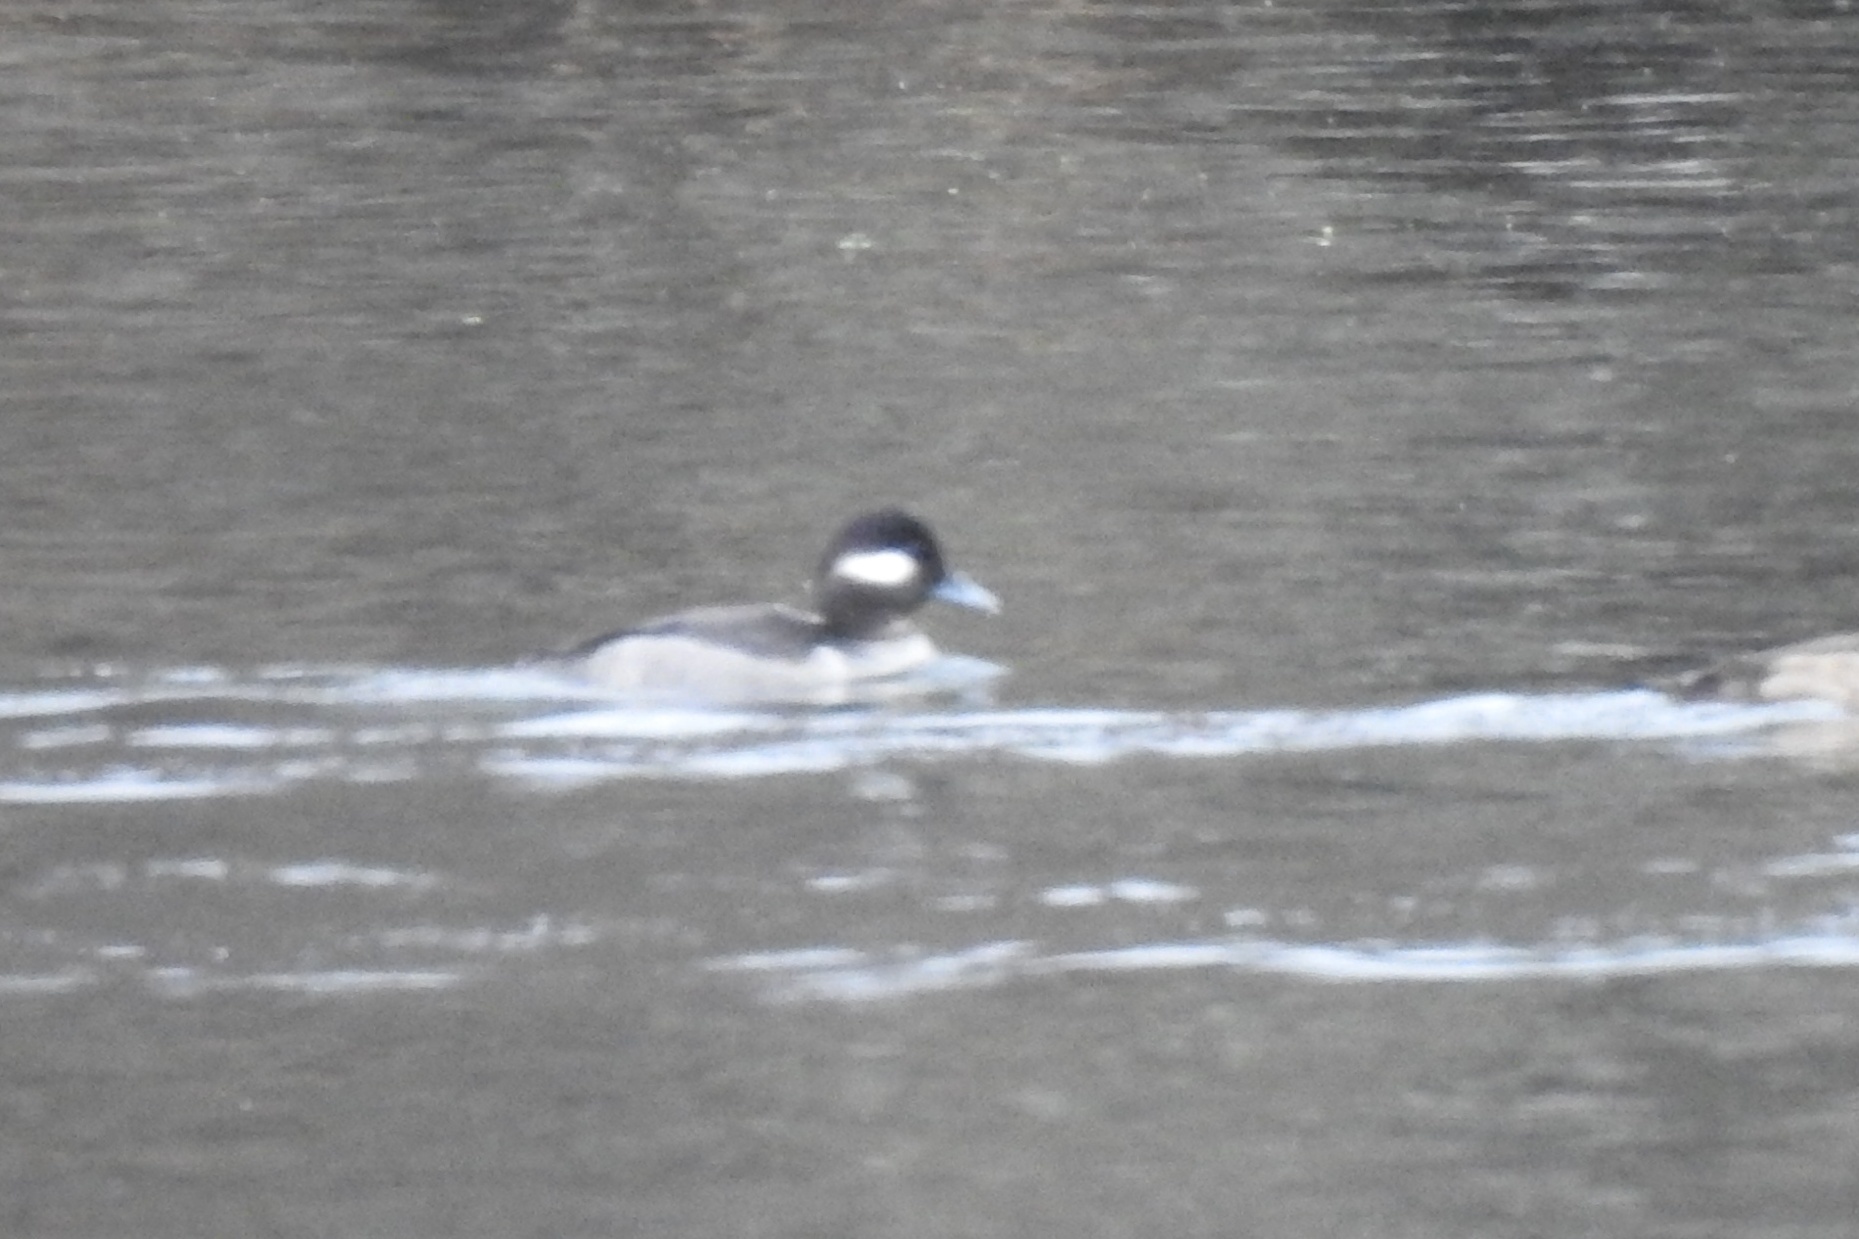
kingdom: Animalia
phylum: Chordata
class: Aves
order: Anseriformes
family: Anatidae
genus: Bucephala
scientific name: Bucephala albeola
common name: Bufflehead
